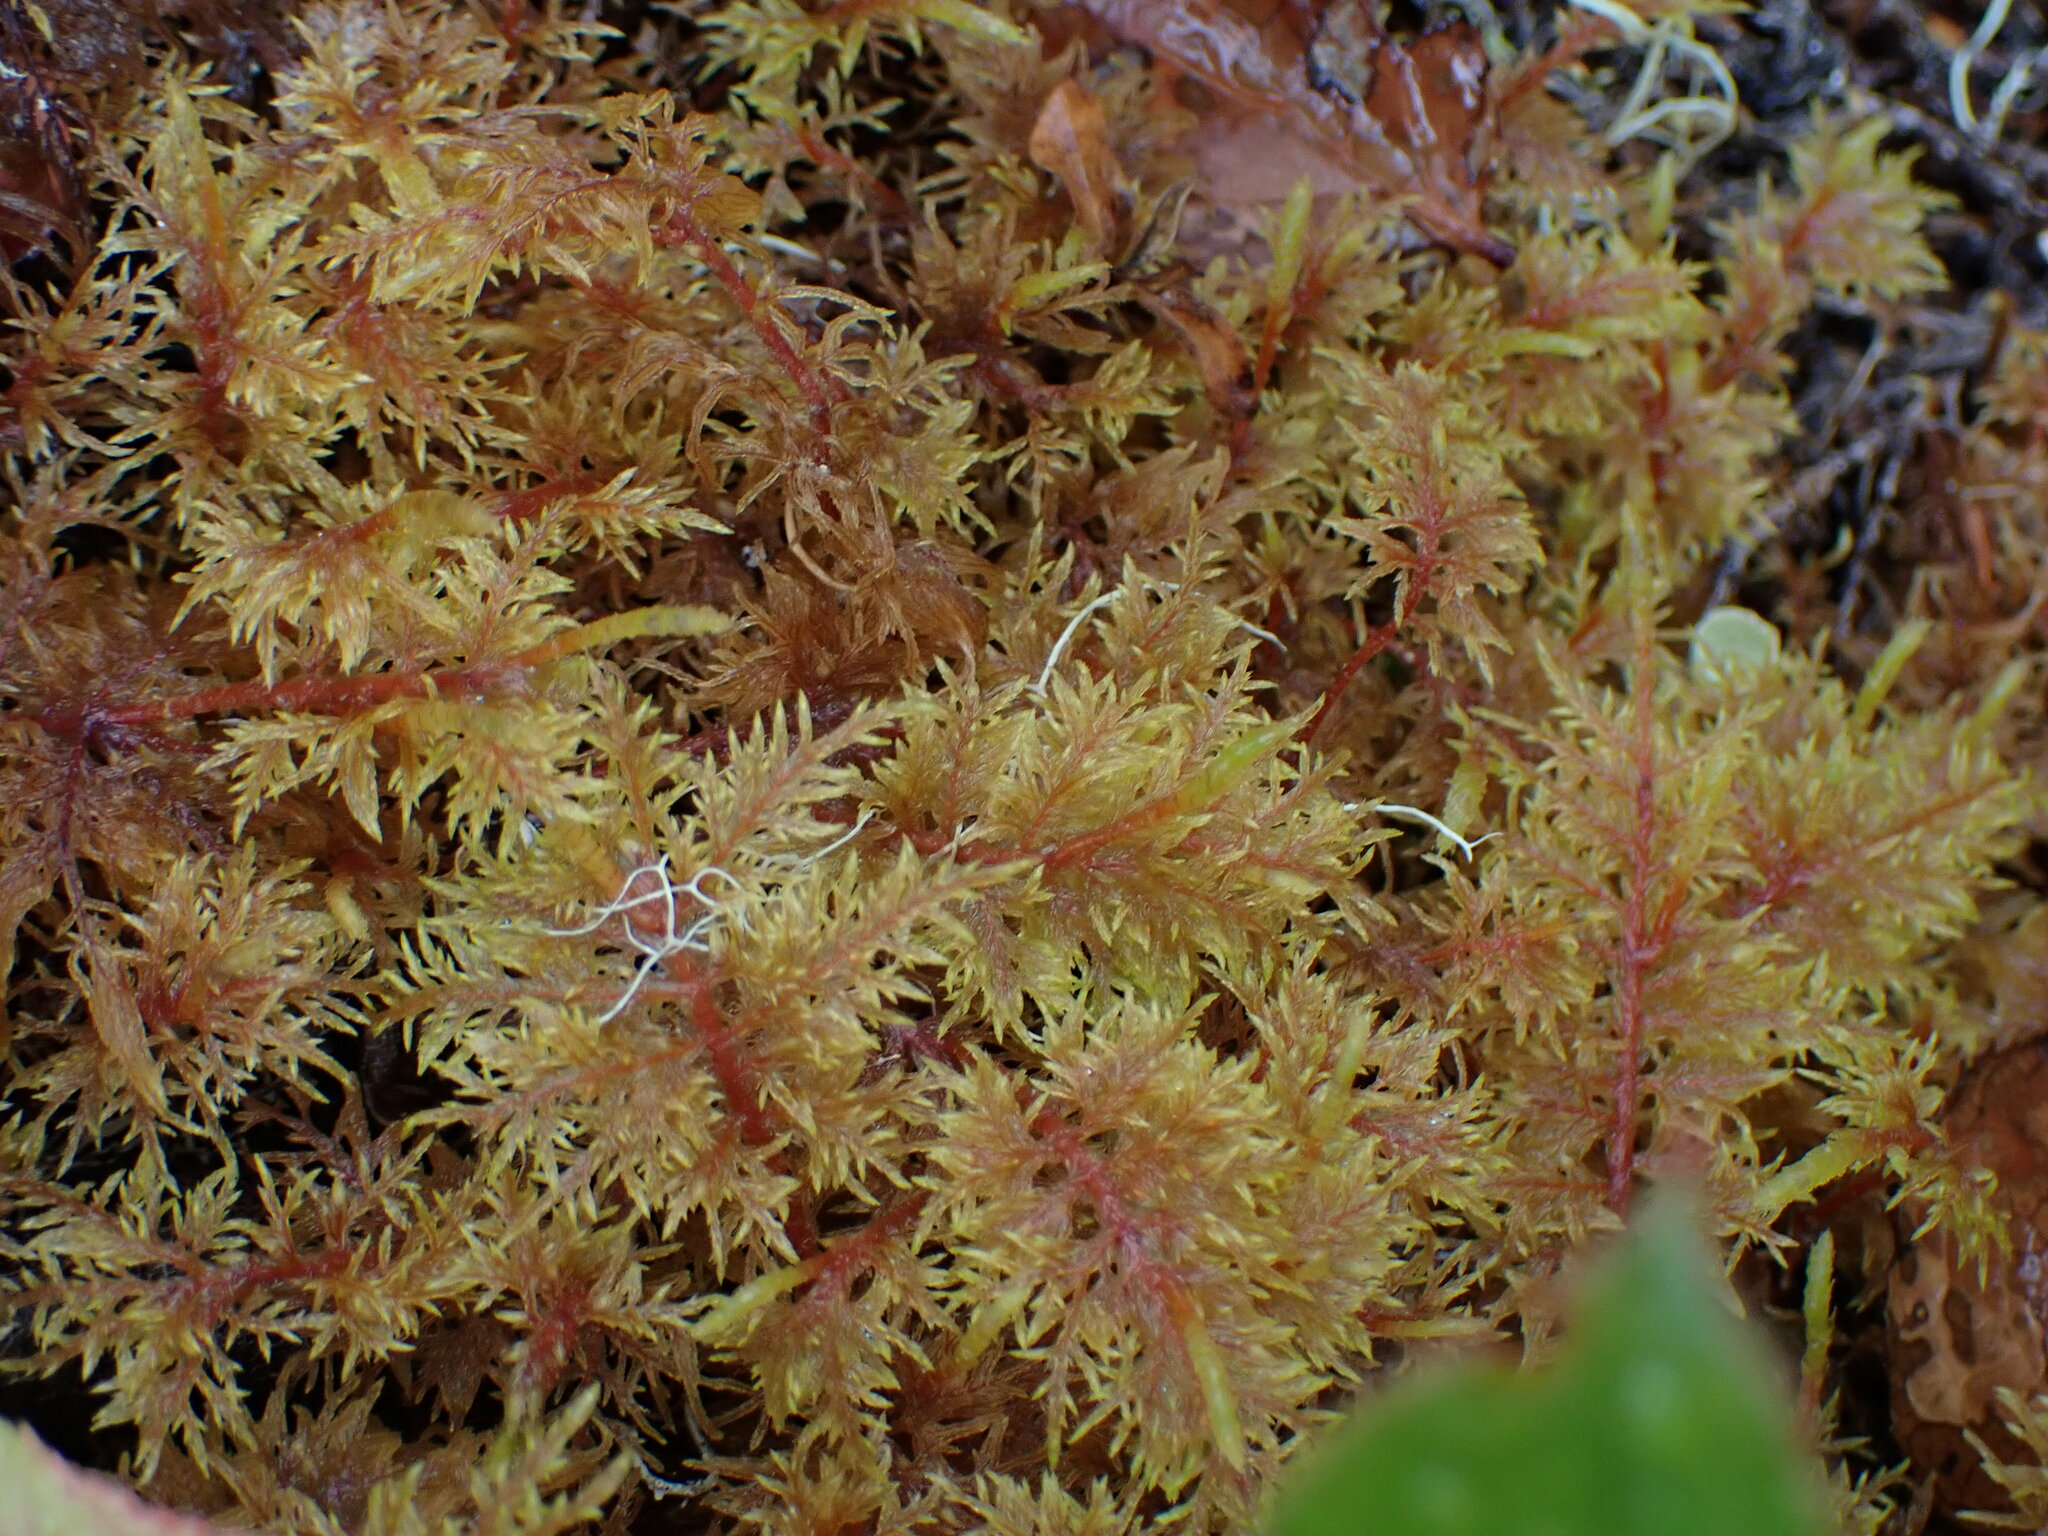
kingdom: Plantae
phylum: Bryophyta
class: Bryopsida
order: Hypnales
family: Hylocomiaceae
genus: Hylocomium
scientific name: Hylocomium splendens
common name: Stairstep moss
